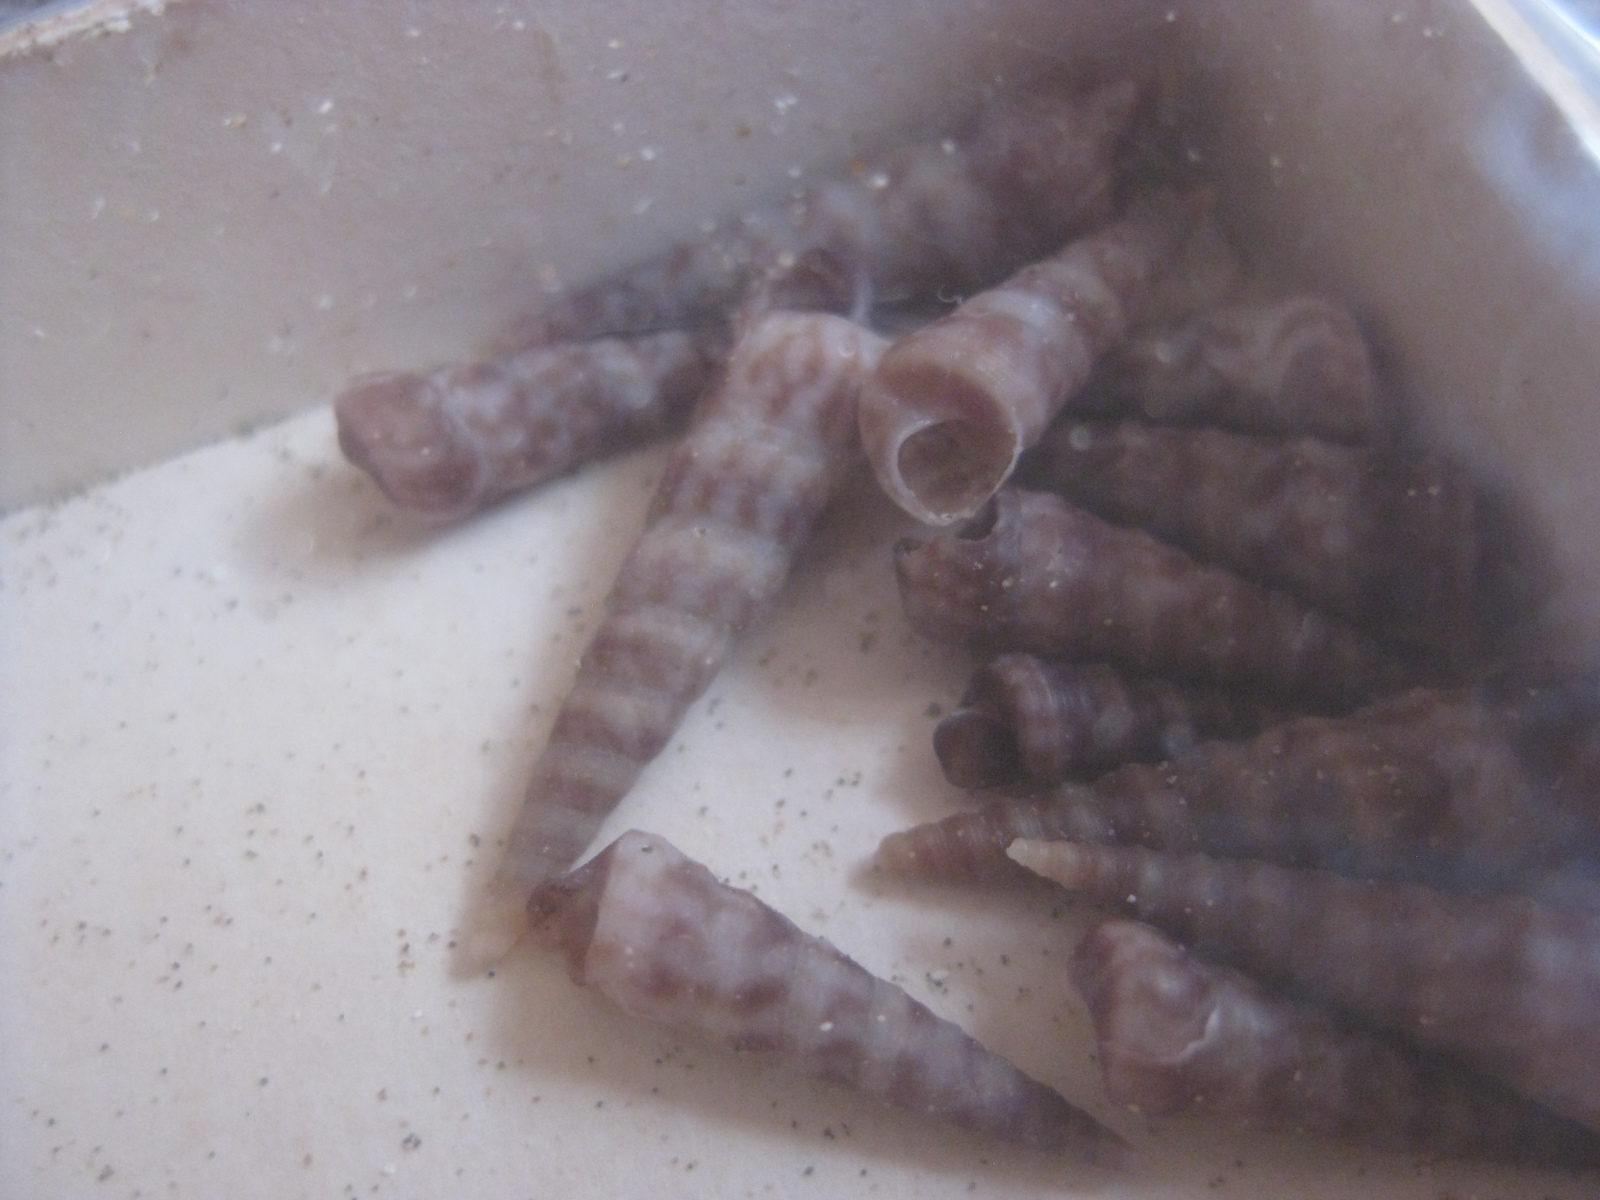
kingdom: Animalia
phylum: Mollusca
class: Gastropoda
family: Turritellidae
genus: Stiracolpus
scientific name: Stiracolpus pagoda
